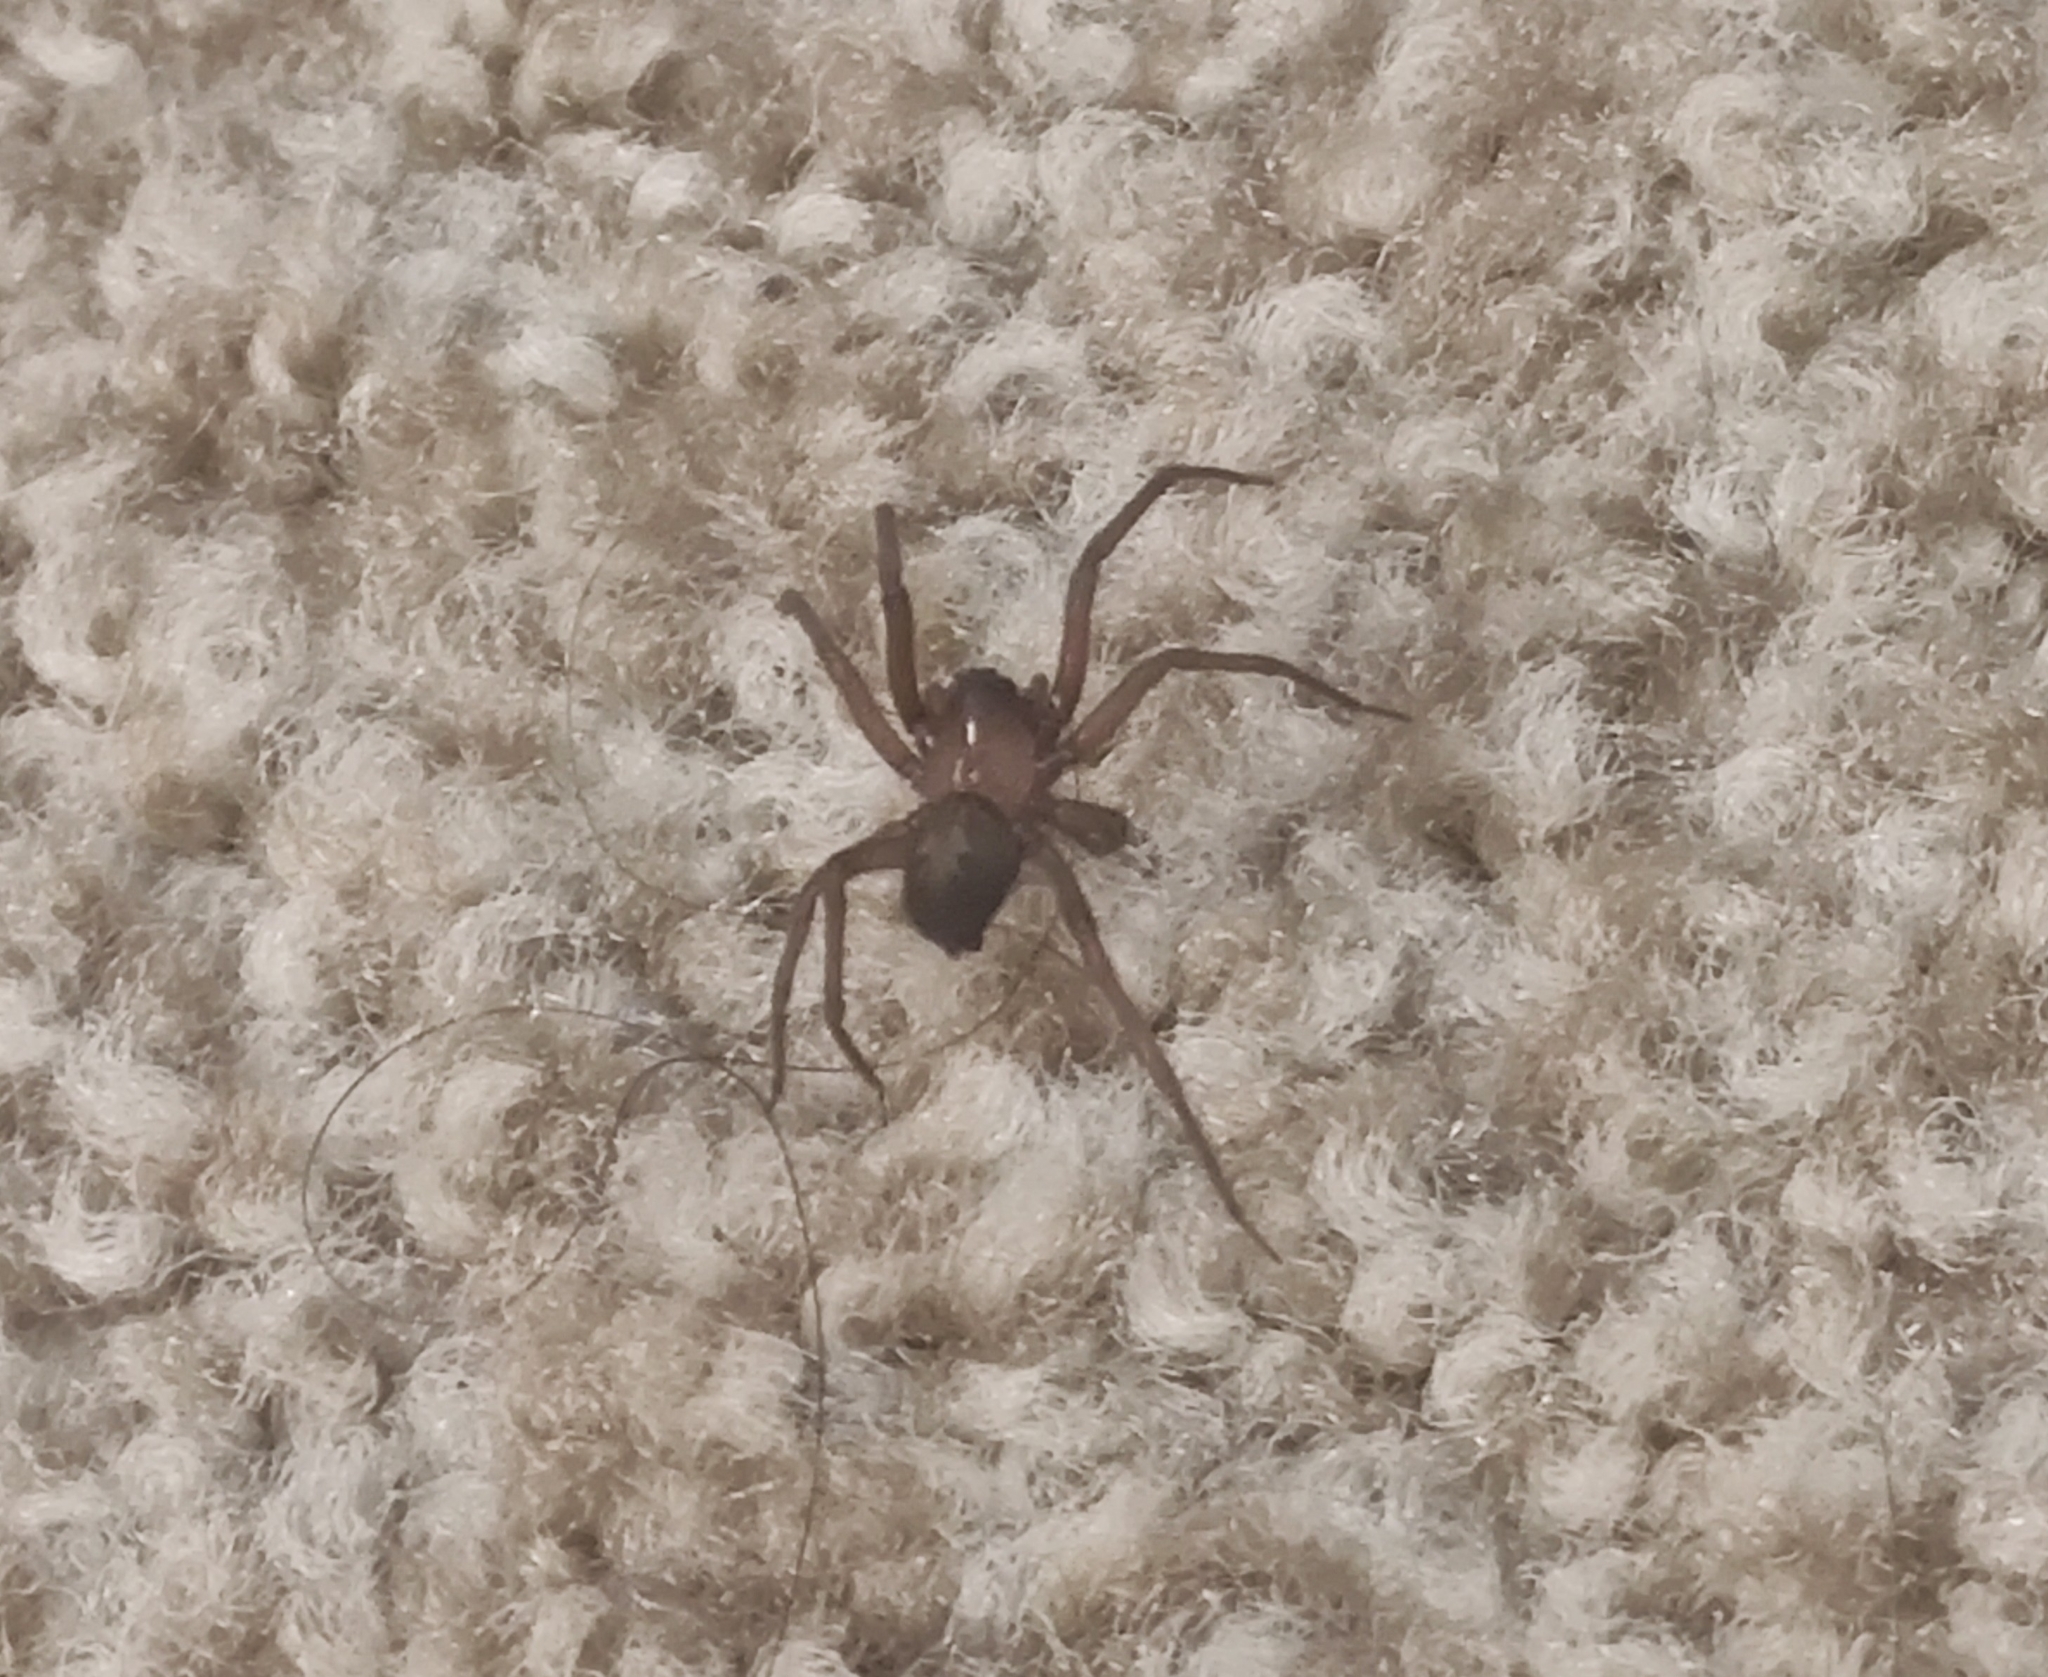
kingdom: Animalia
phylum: Arthropoda
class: Arachnida
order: Araneae
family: Desidae
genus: Metaltella
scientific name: Metaltella simoni
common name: Cribellate spider
